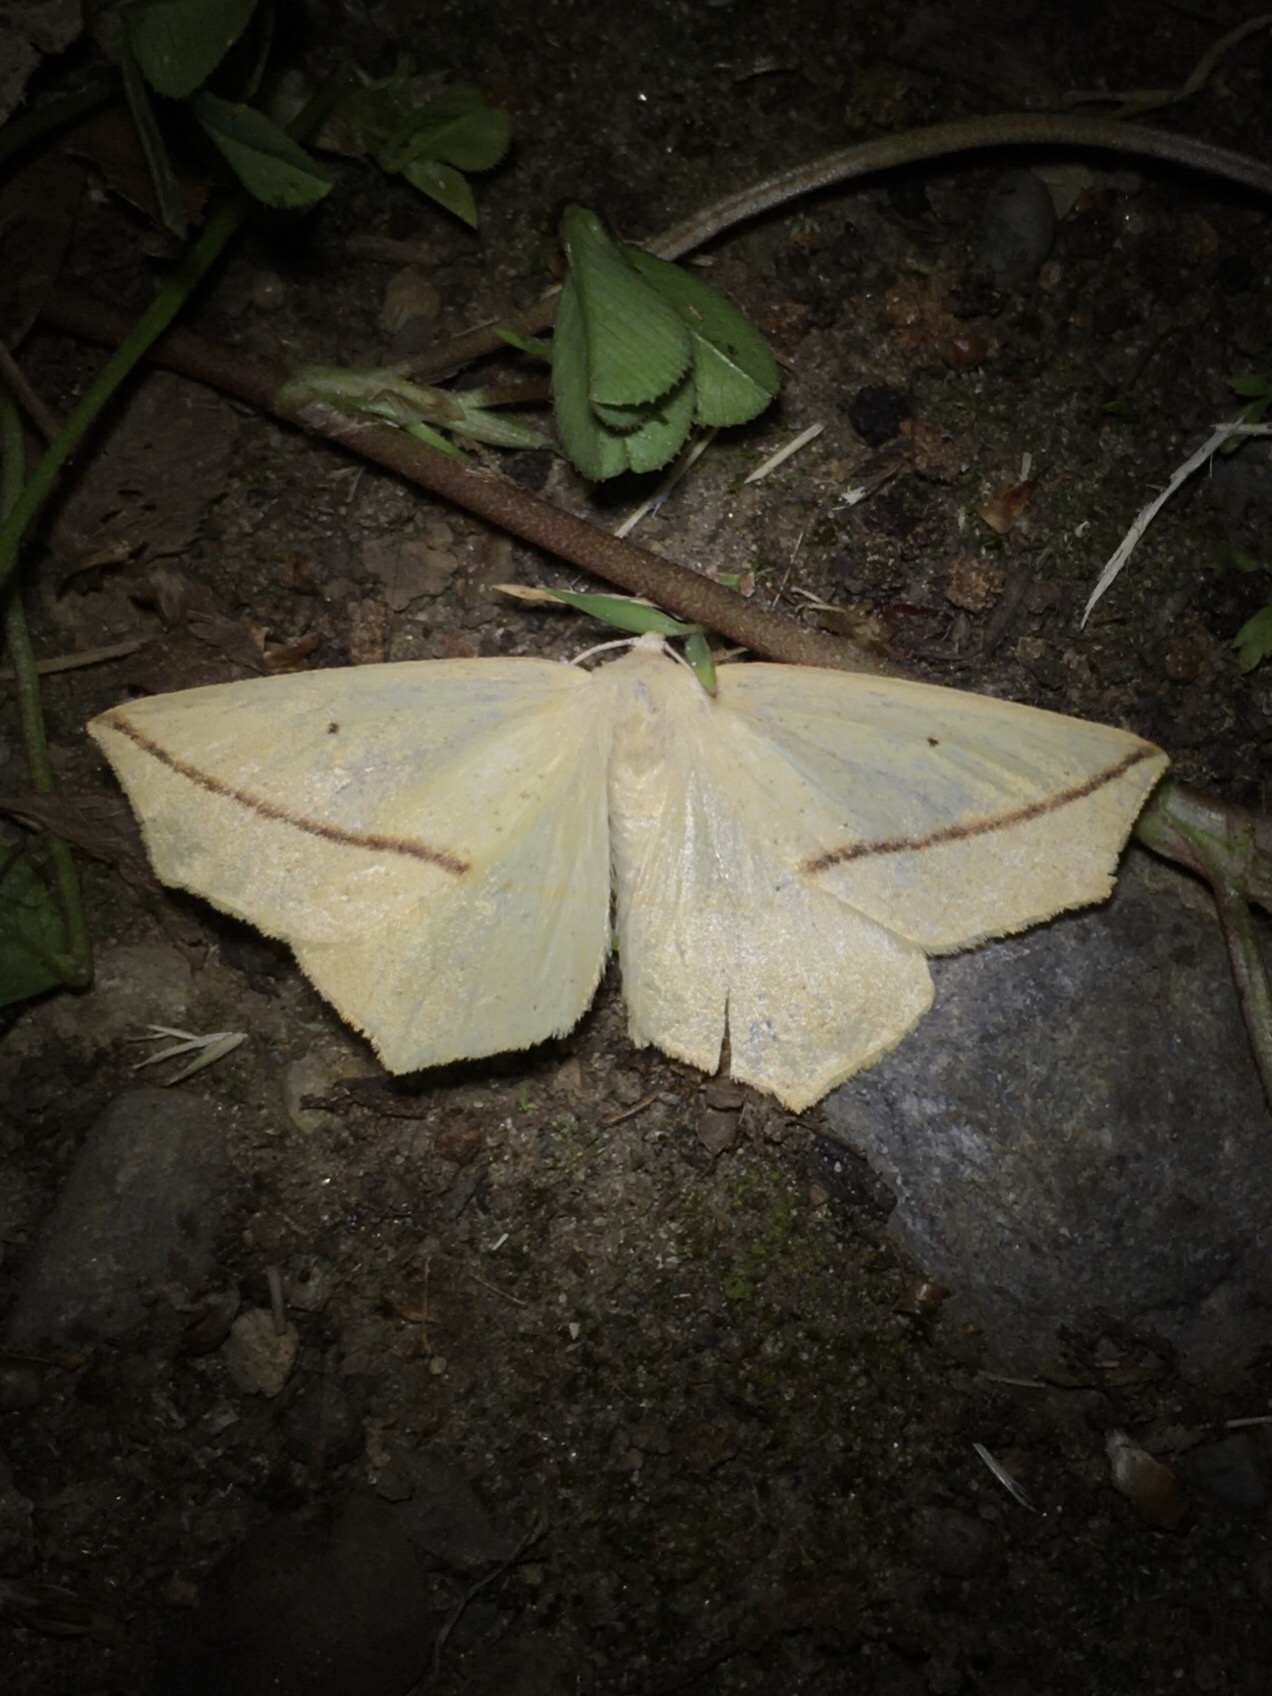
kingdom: Animalia
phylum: Arthropoda
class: Insecta
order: Lepidoptera
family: Geometridae
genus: Tetracis
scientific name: Tetracis crocallata
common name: Yellow slant-line
